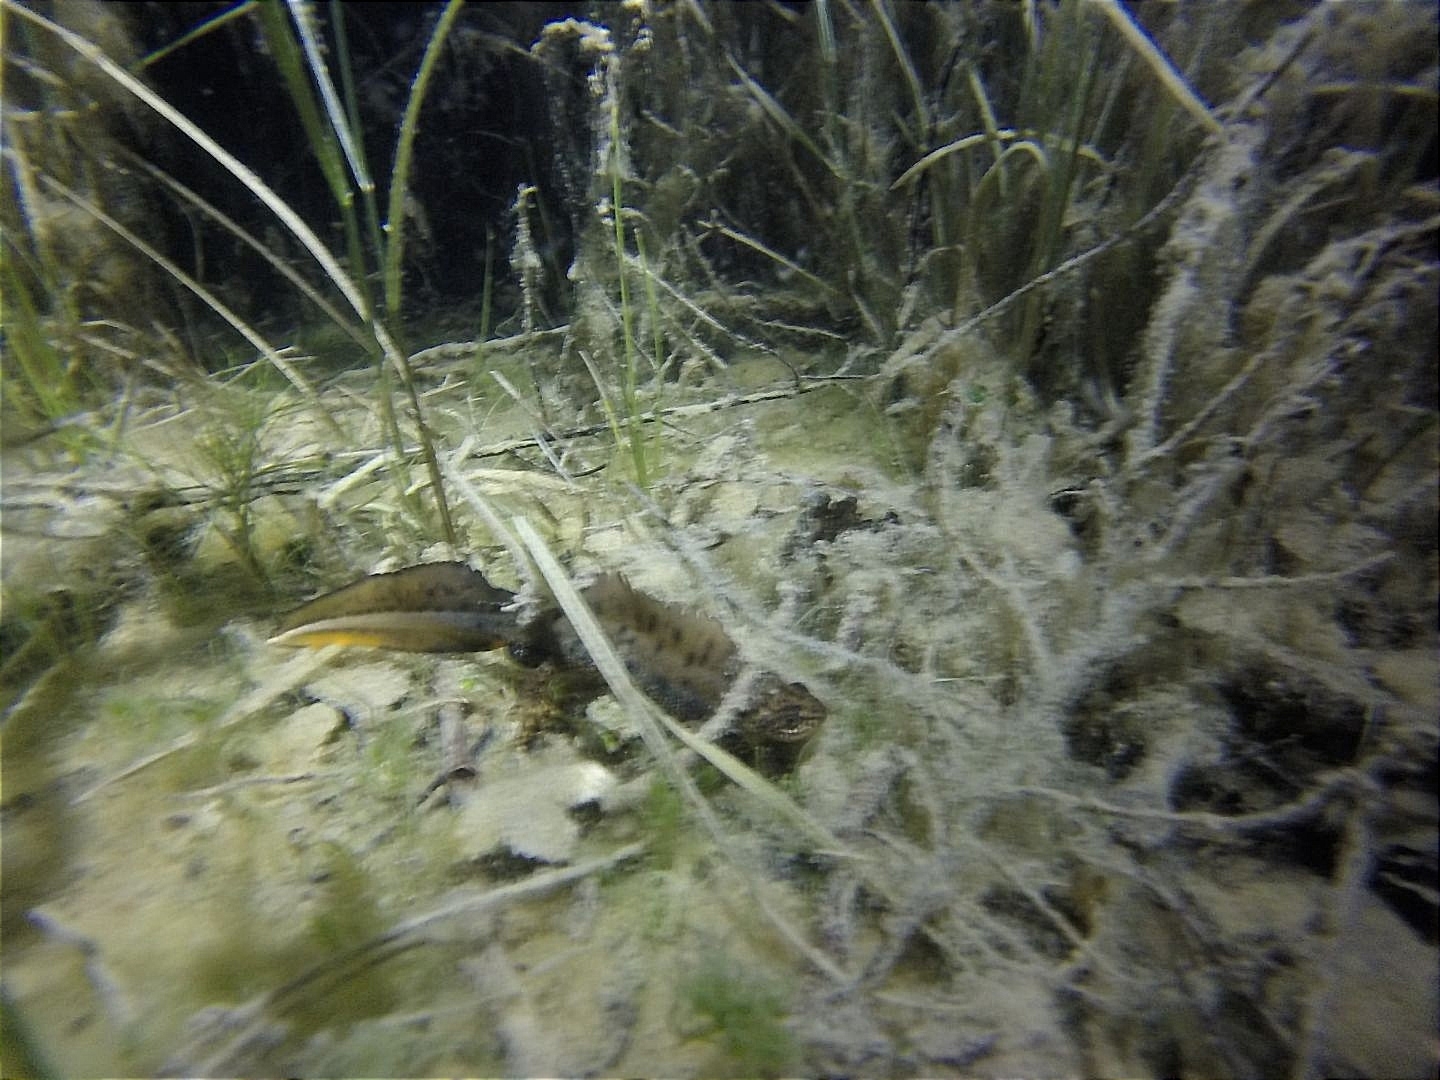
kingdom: Animalia
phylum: Chordata
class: Amphibia
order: Caudata
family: Salamandridae
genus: Triturus
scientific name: Triturus cristatus
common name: Crested newt
